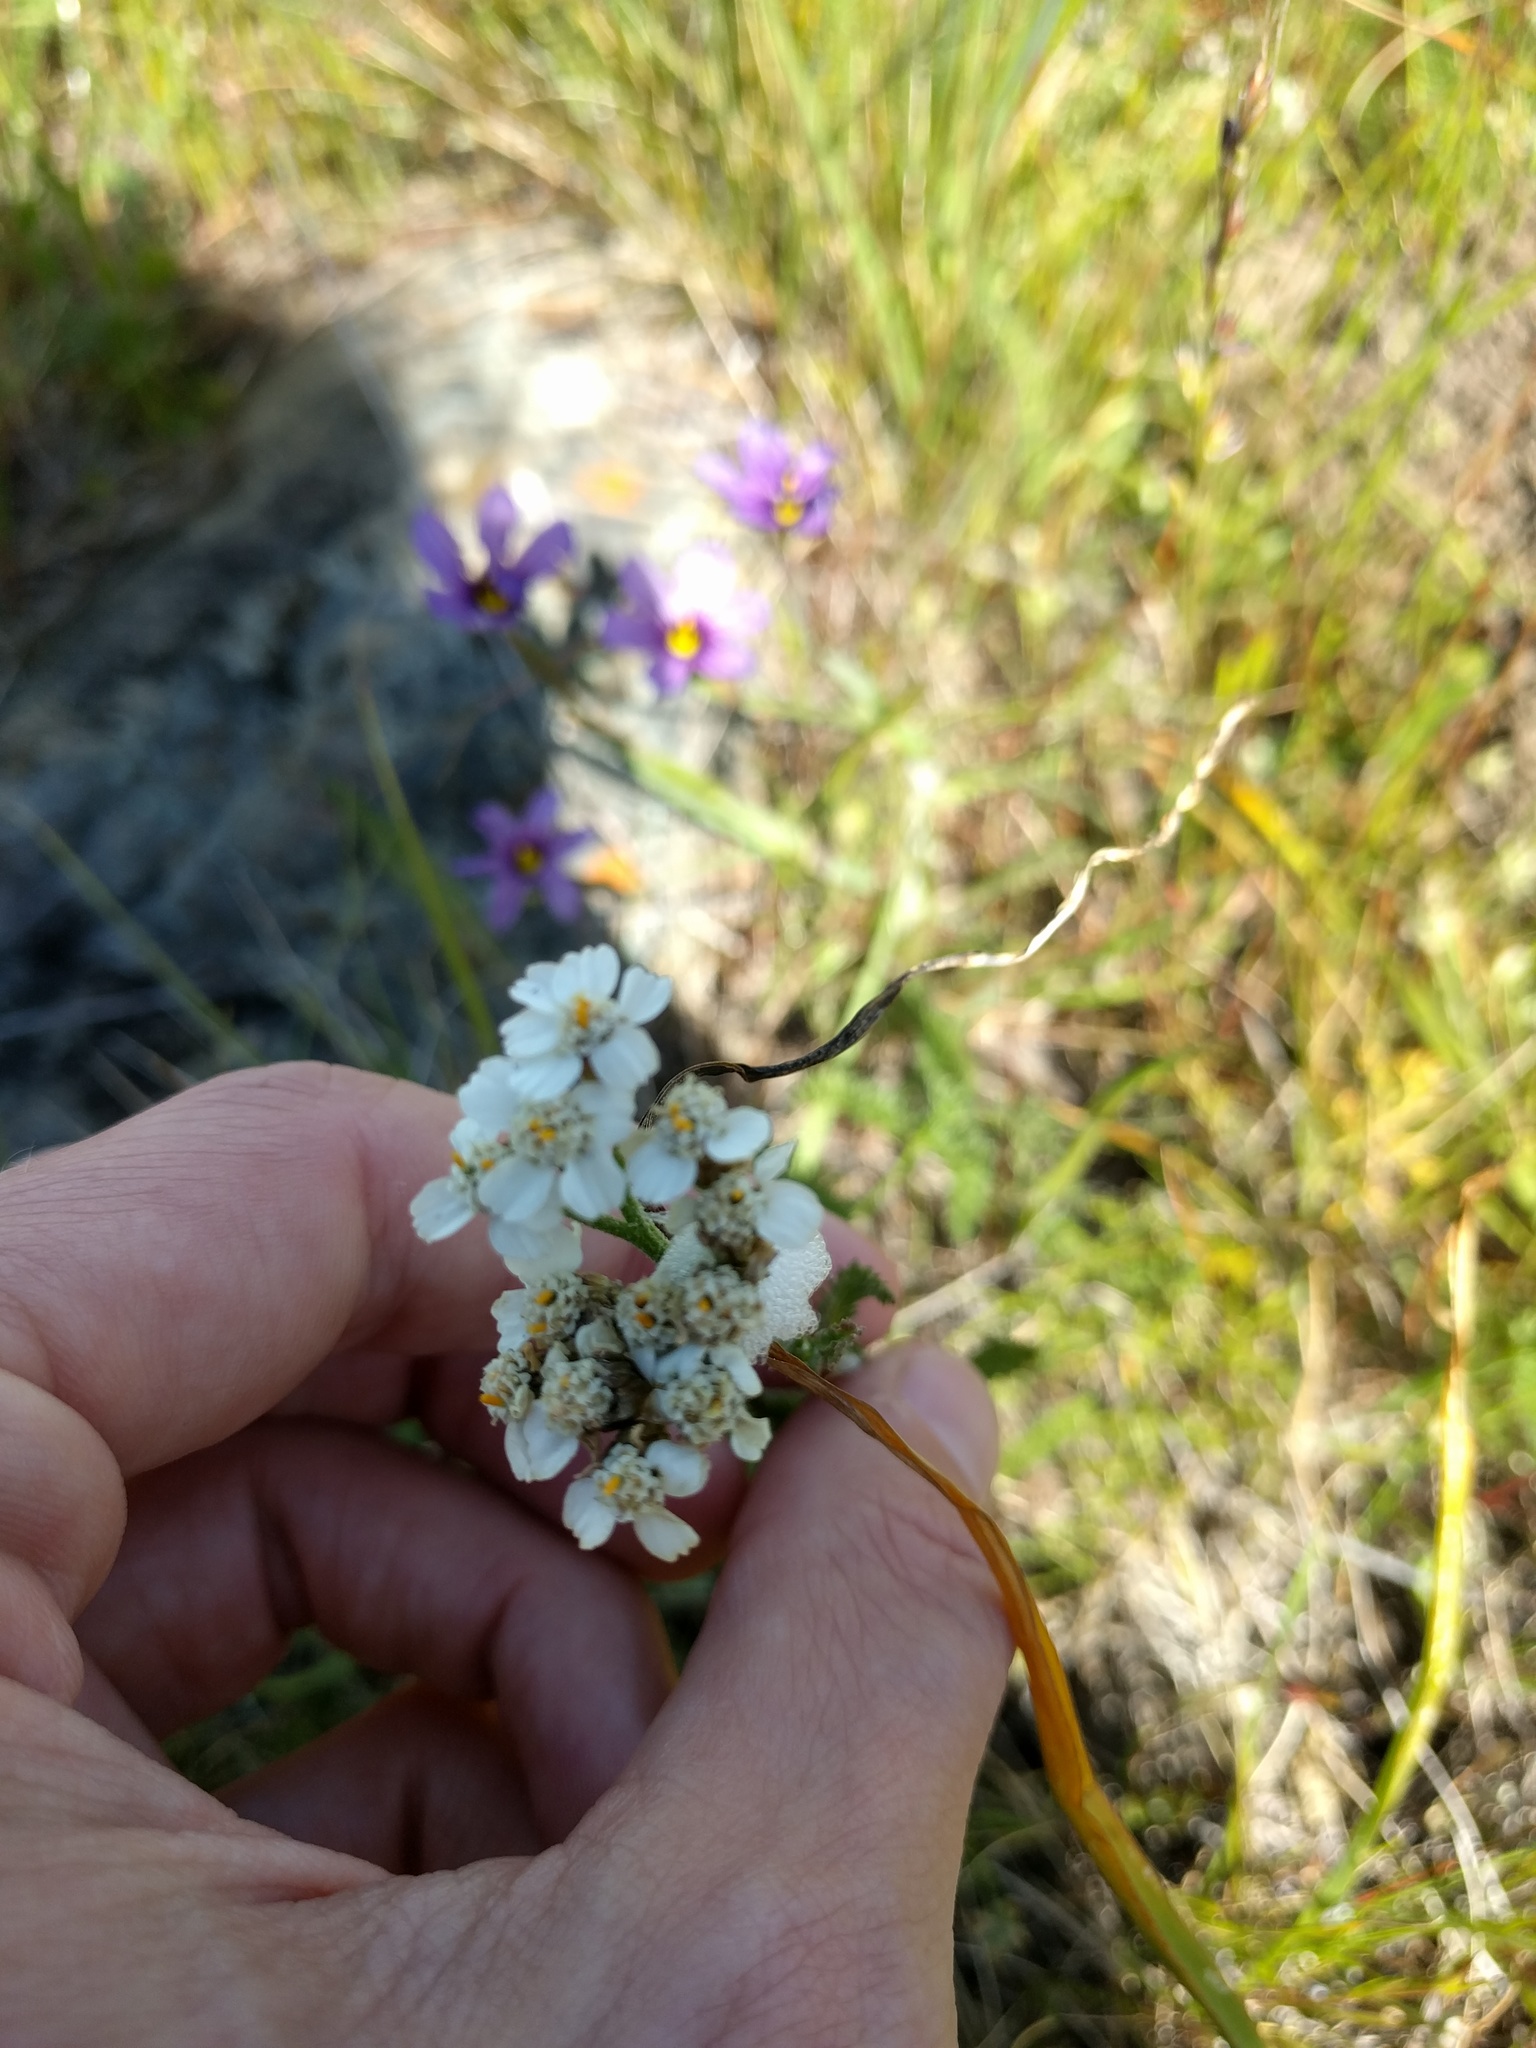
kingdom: Plantae
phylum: Tracheophyta
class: Magnoliopsida
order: Asterales
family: Asteraceae
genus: Achillea
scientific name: Achillea millefolium
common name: Yarrow
